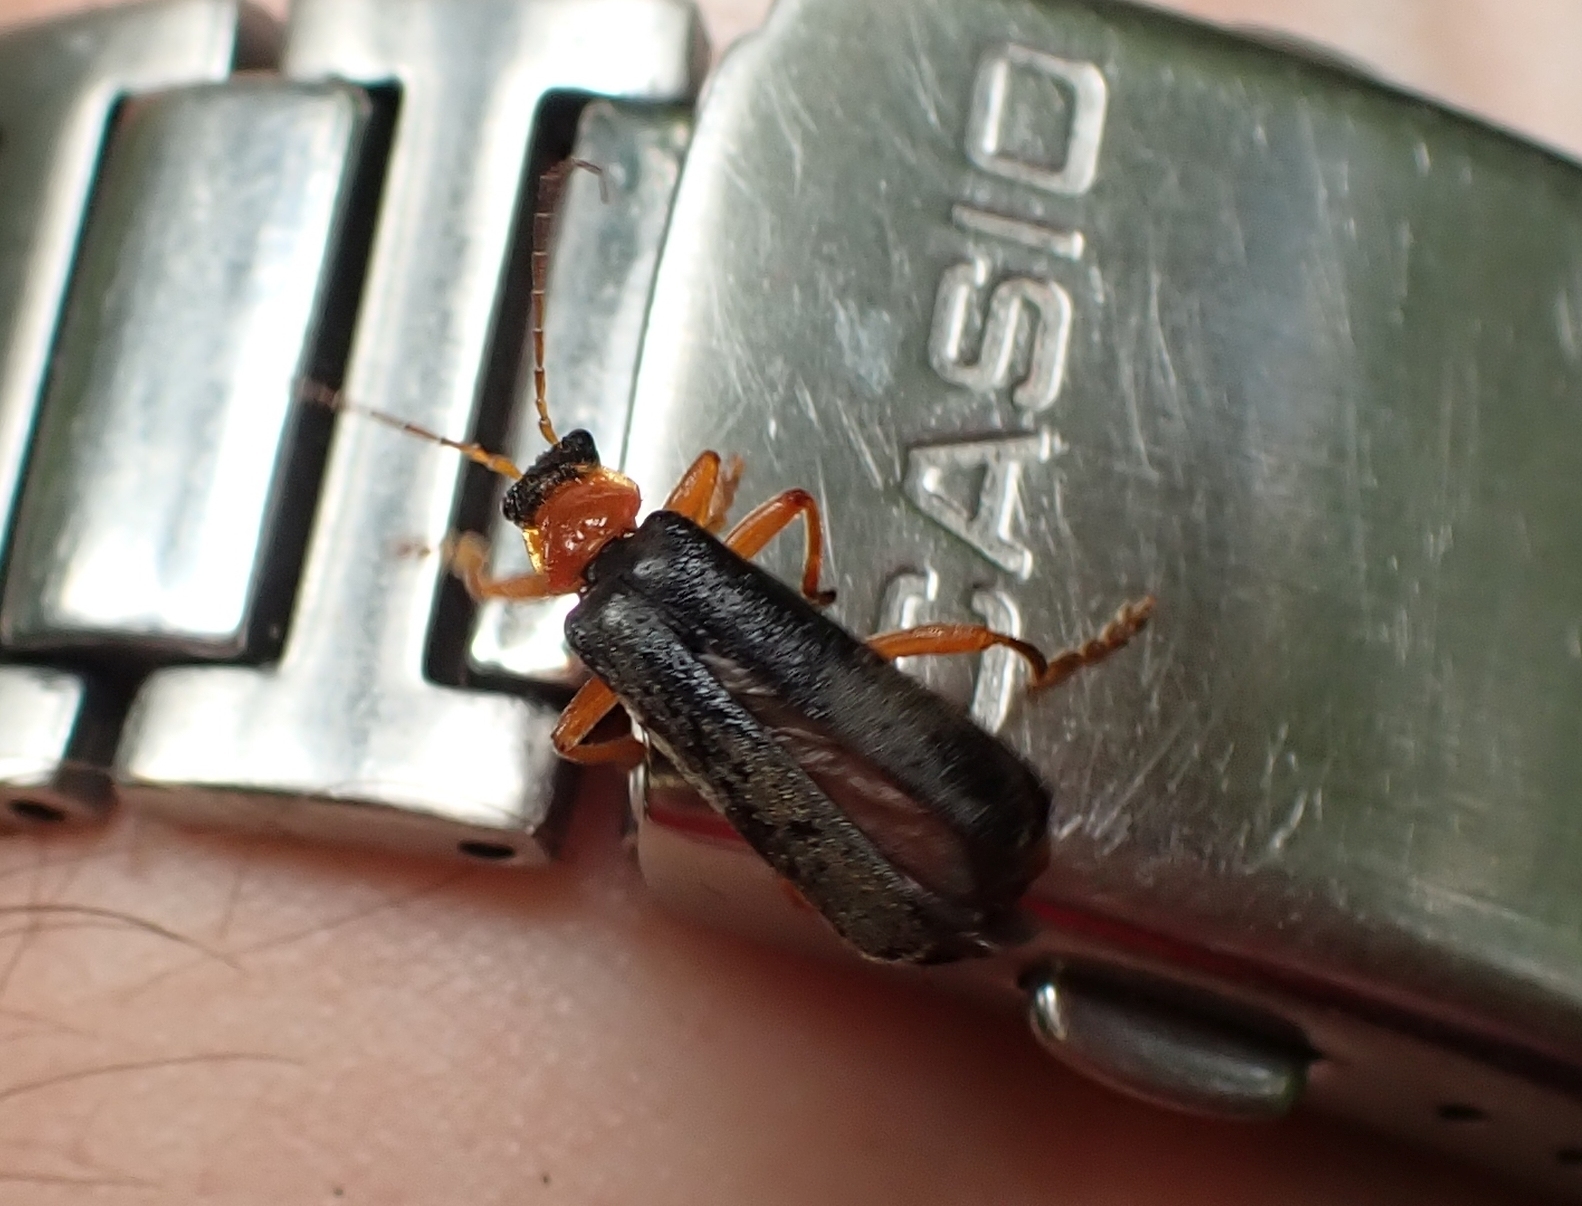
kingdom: Animalia
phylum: Arthropoda
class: Insecta
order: Coleoptera
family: Cantharidae
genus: Cantharis
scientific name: Cantharis pellucida
